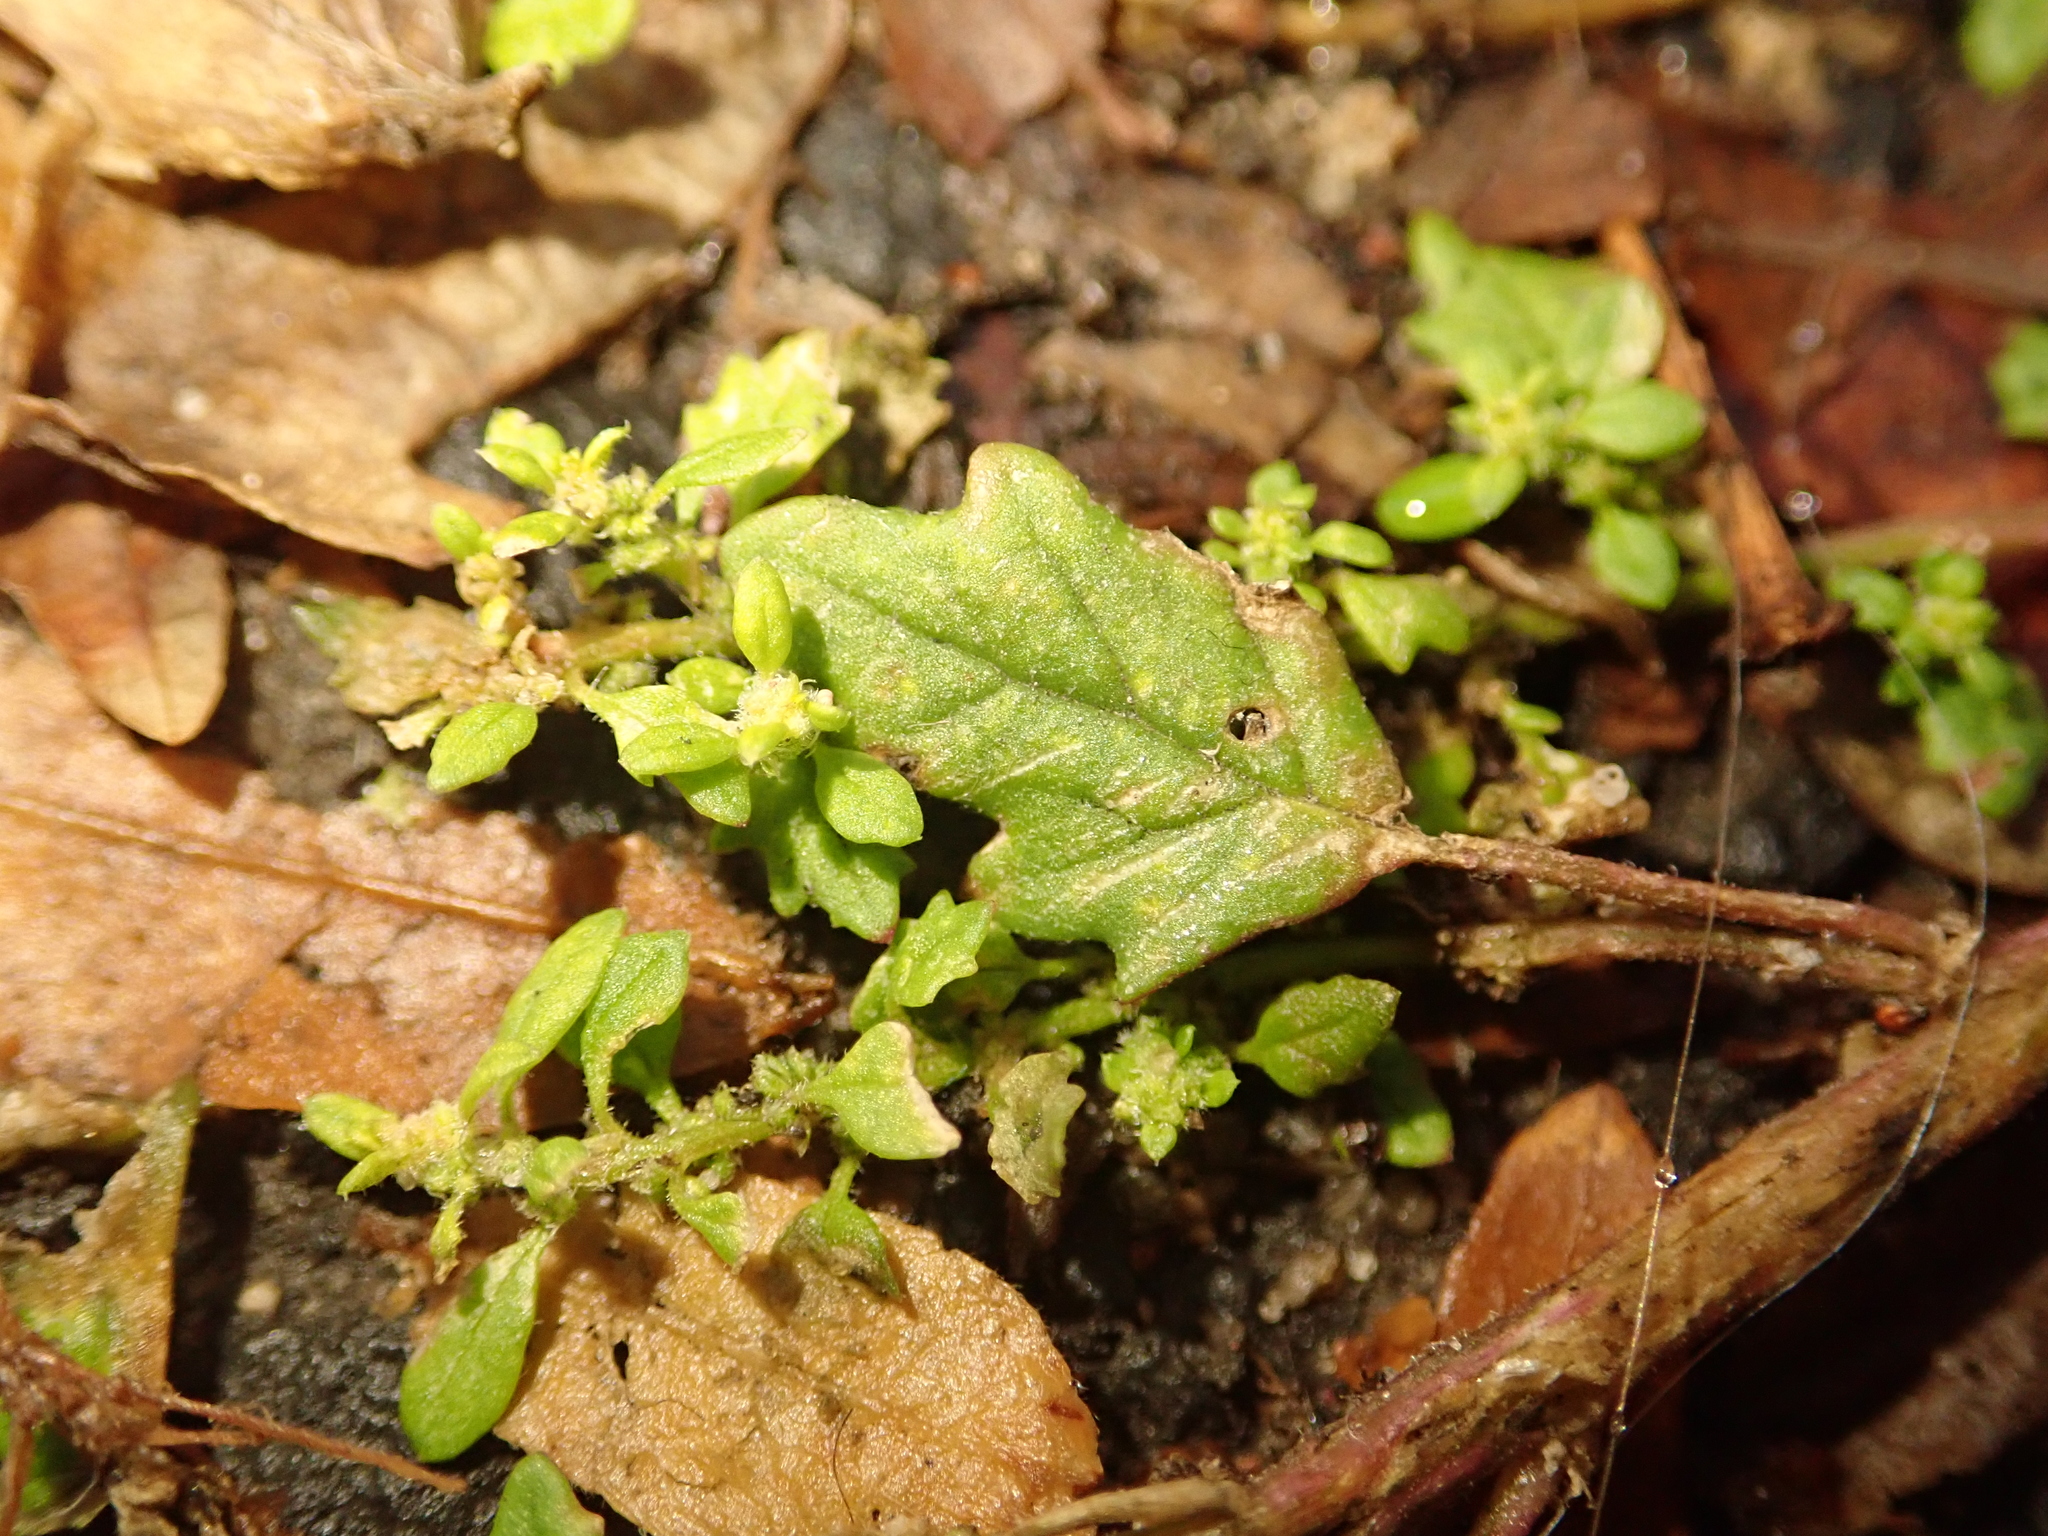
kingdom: Plantae
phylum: Tracheophyta
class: Magnoliopsida
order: Caryophyllales
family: Amaranthaceae
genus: Dysphania
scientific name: Dysphania pumilio
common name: Clammy goosefoot
